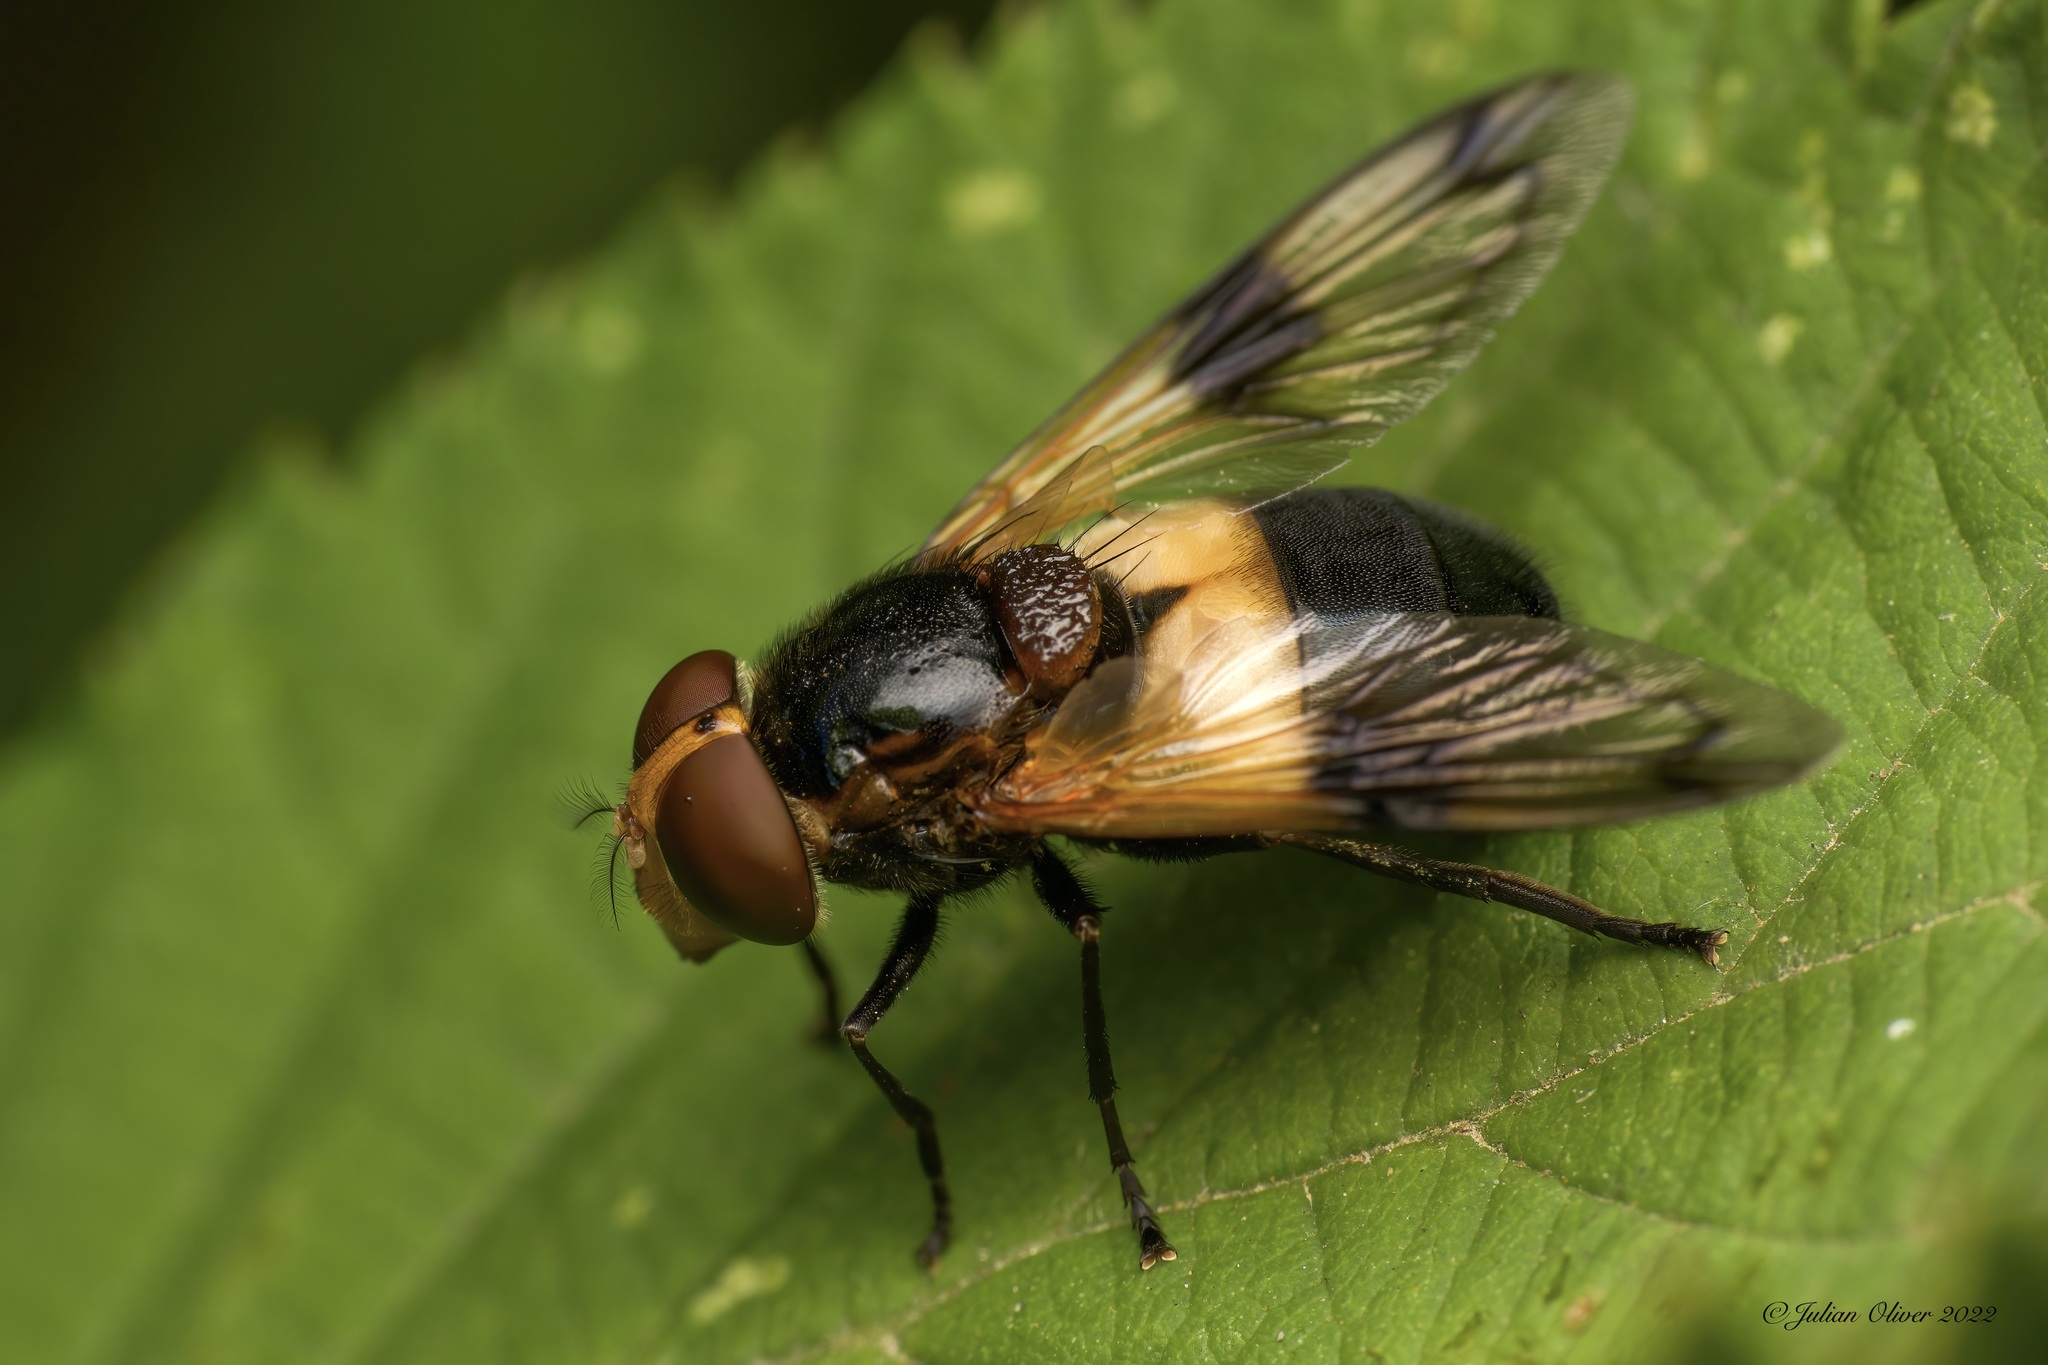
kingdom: Animalia
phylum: Arthropoda
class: Insecta
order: Diptera
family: Syrphidae
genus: Volucella
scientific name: Volucella pellucens
